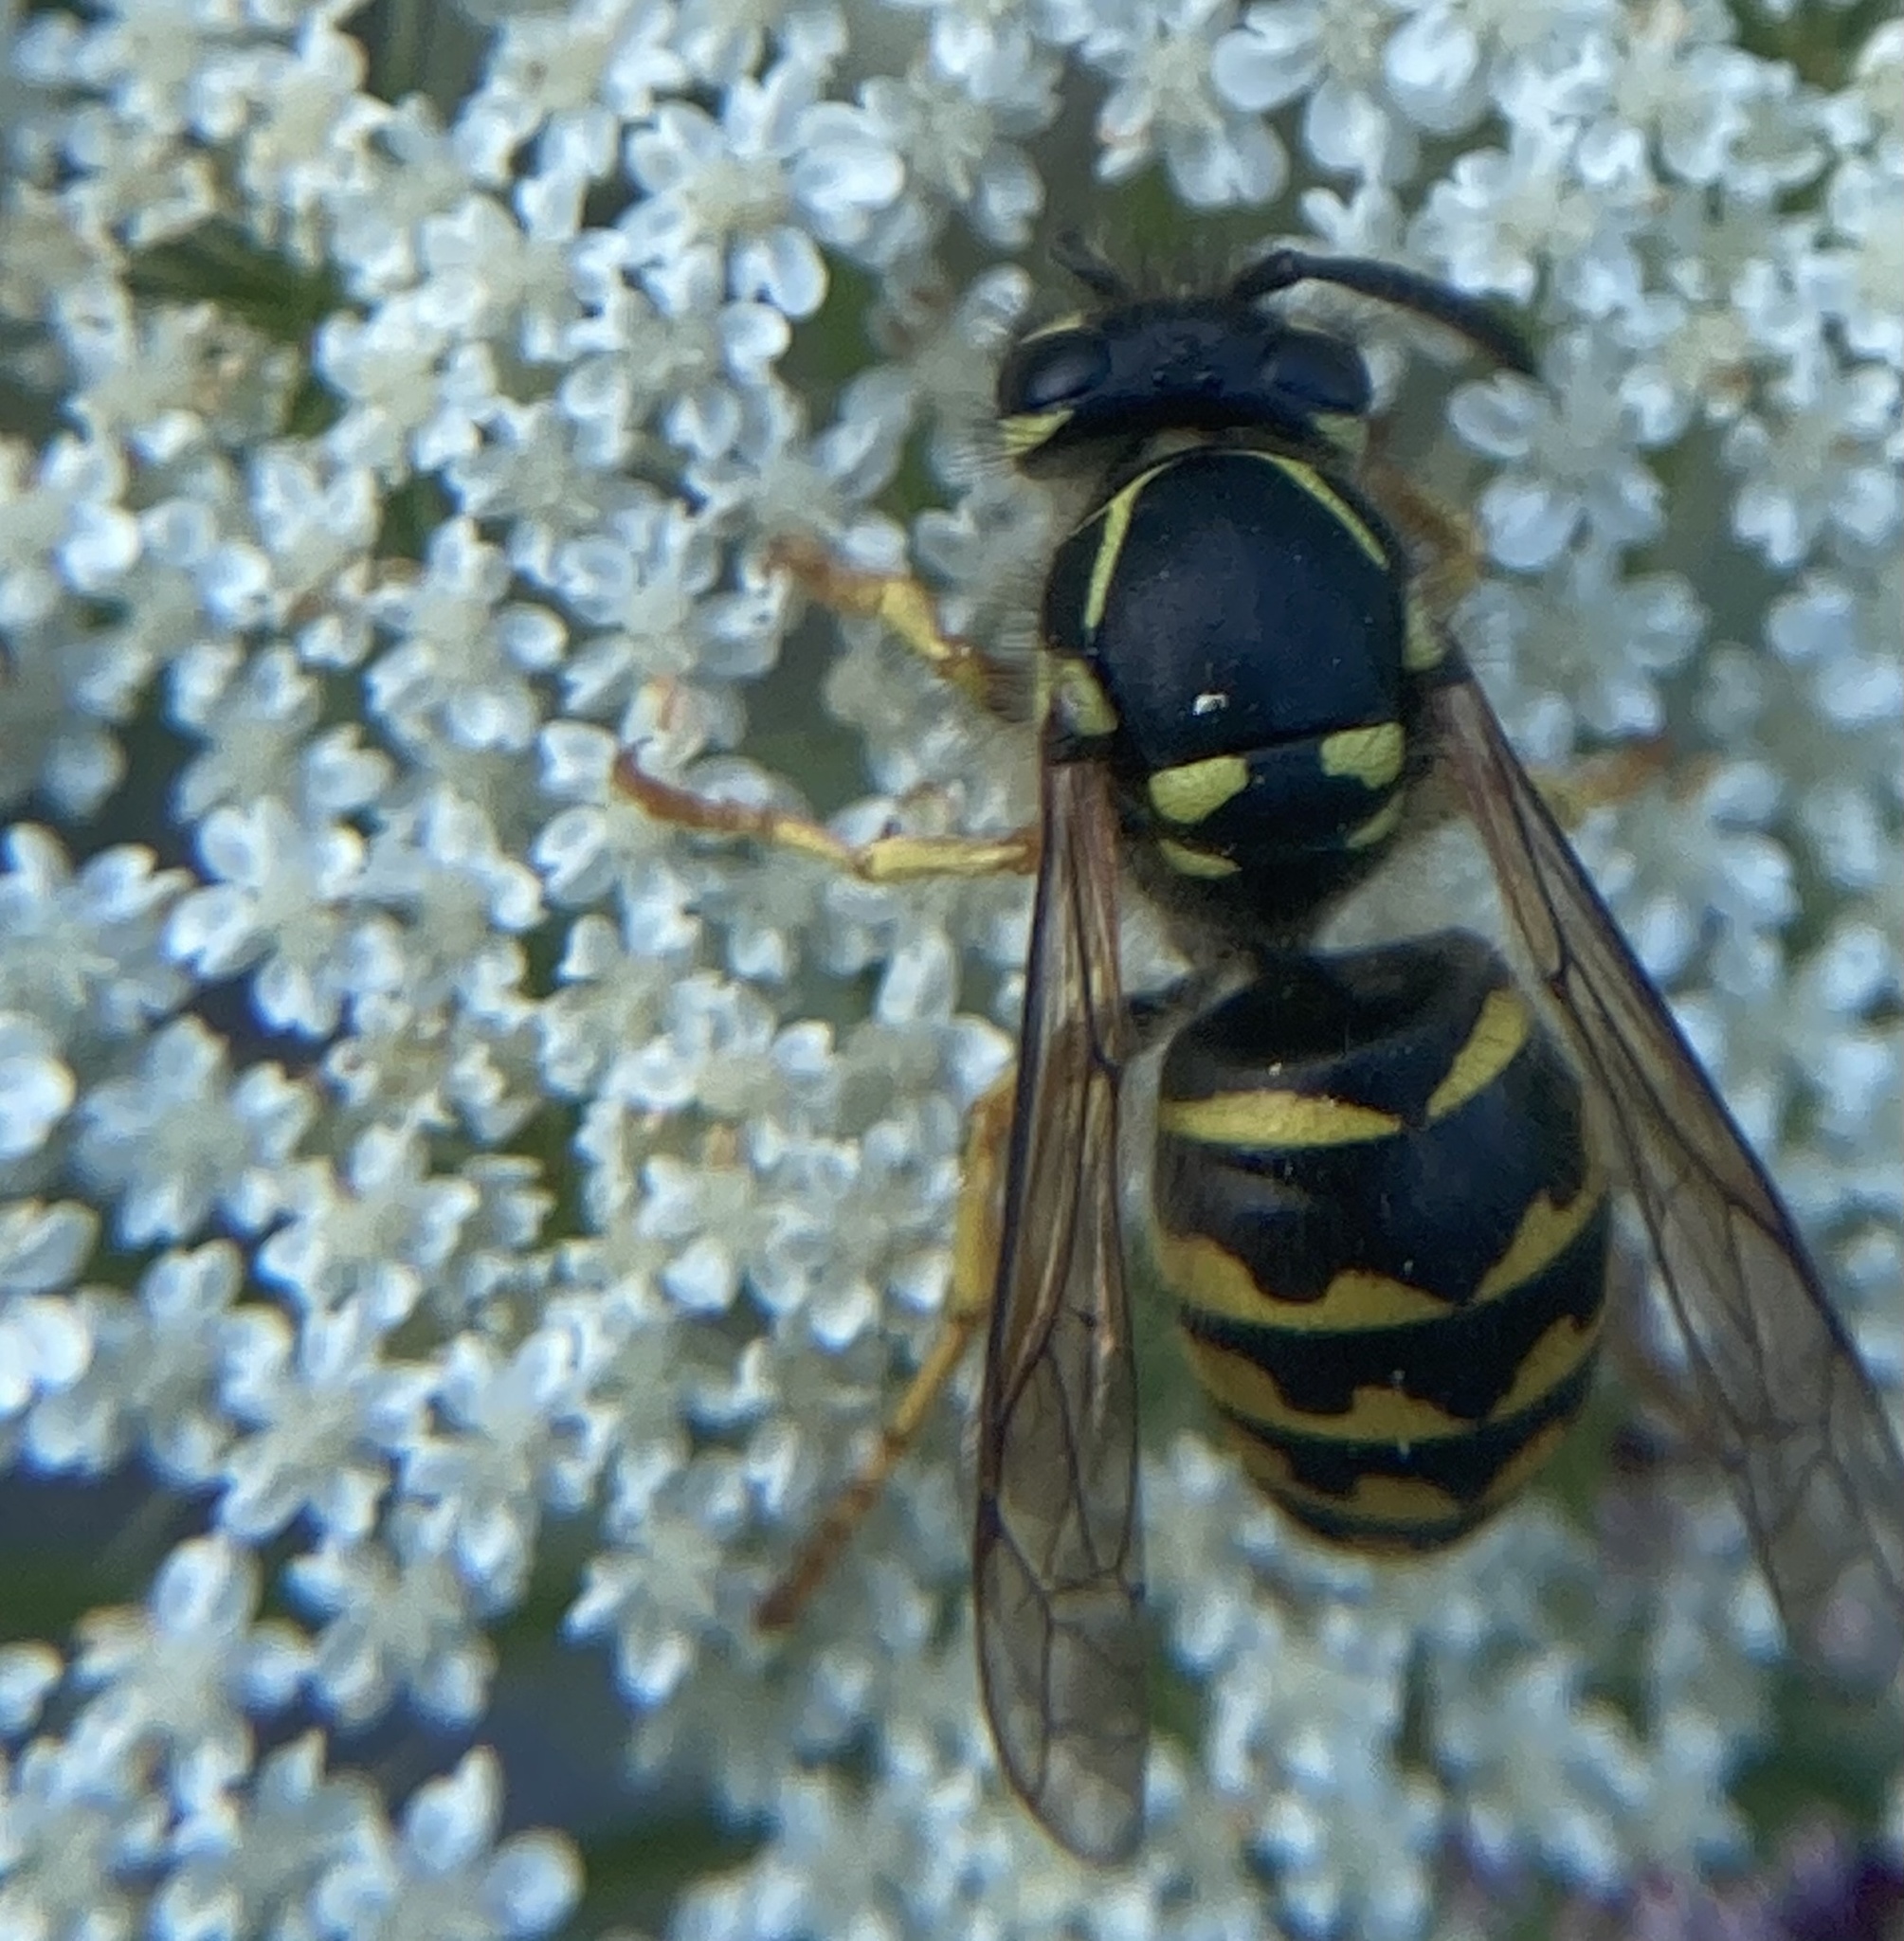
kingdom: Animalia
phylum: Arthropoda
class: Insecta
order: Hymenoptera
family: Vespidae
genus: Dolichovespula
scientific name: Dolichovespula arenaria
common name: Aerial yellowjacket
